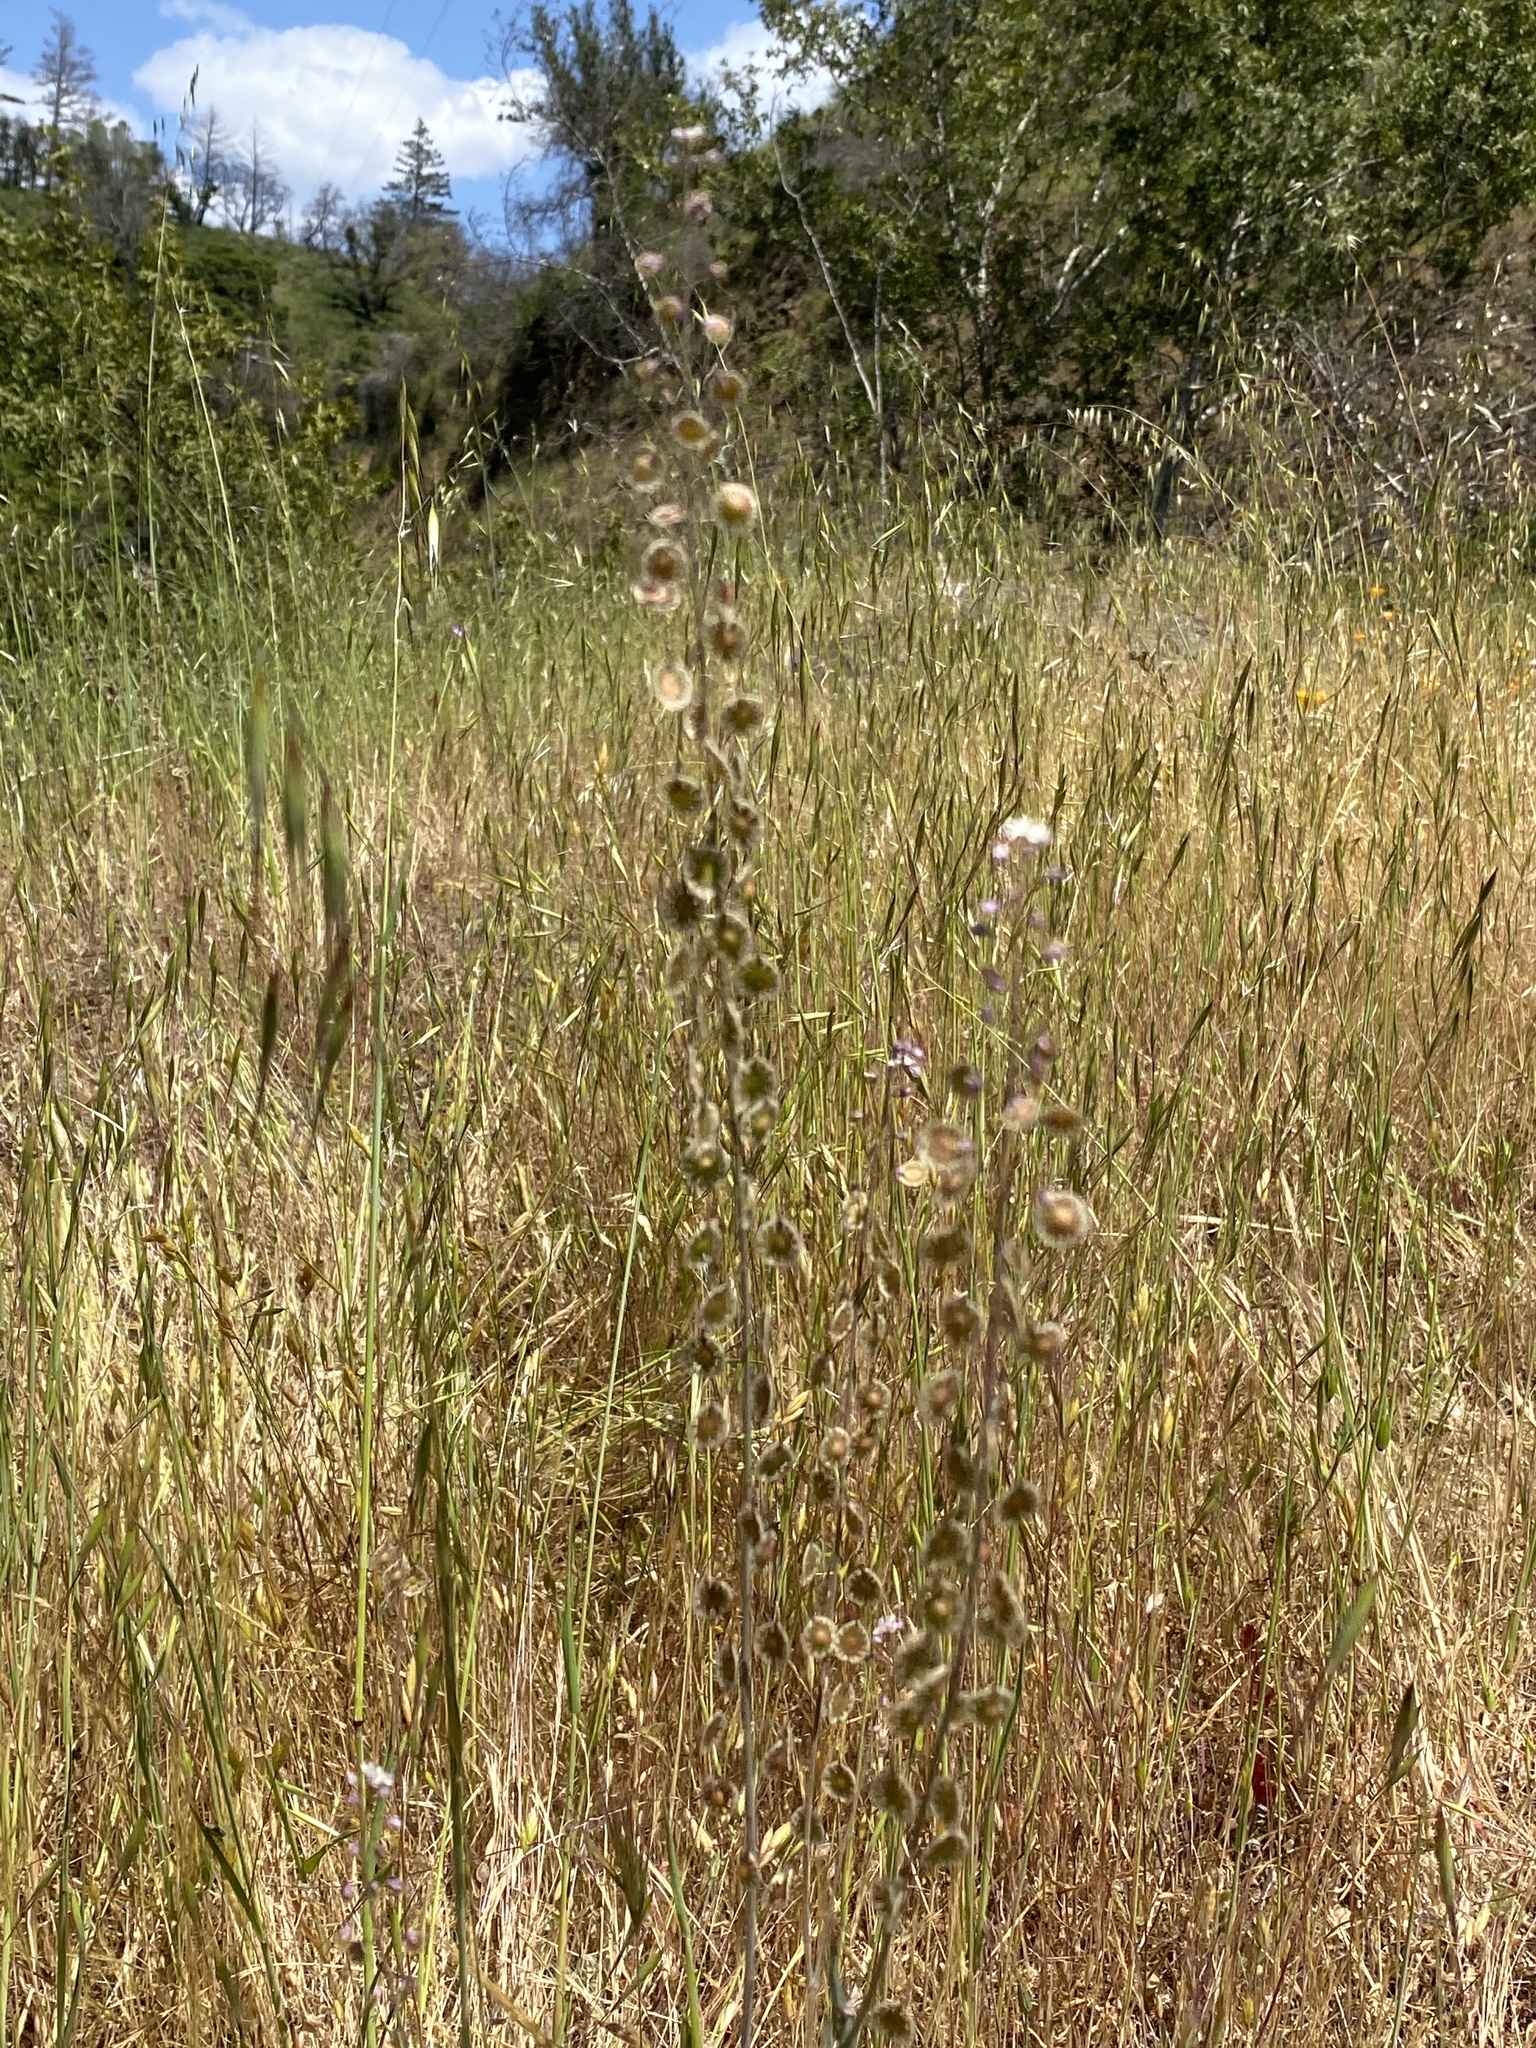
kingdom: Plantae
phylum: Tracheophyta
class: Magnoliopsida
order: Brassicales
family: Brassicaceae
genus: Thysanocarpus
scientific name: Thysanocarpus curvipes
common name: Sand fringepod
